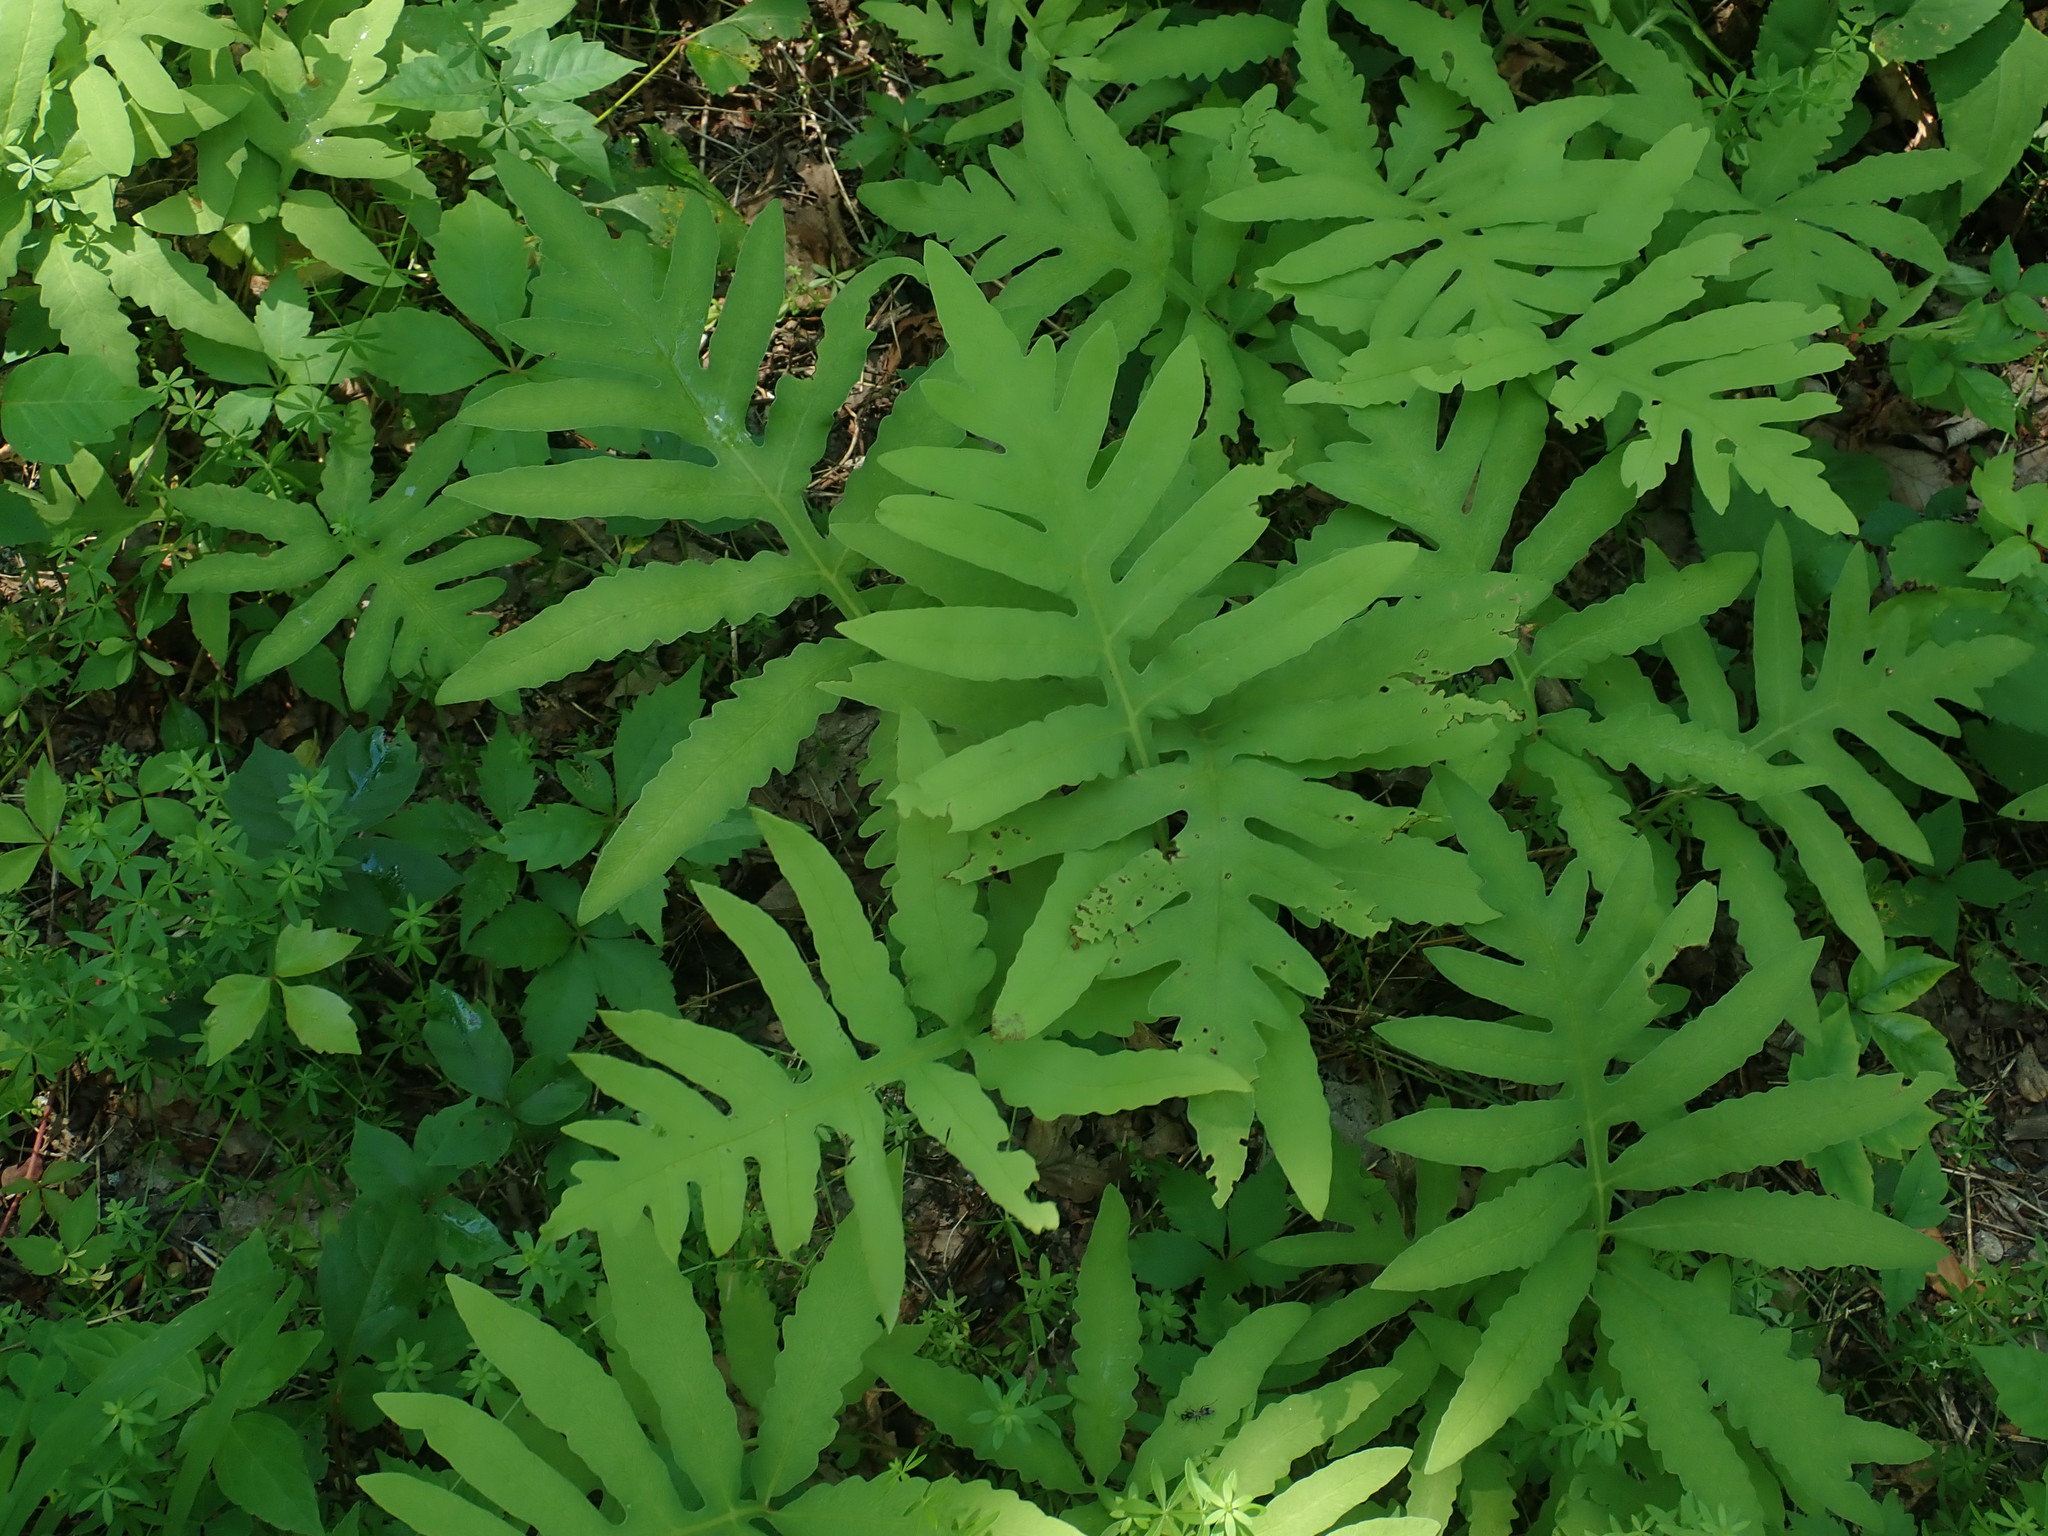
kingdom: Plantae
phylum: Tracheophyta
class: Polypodiopsida
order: Polypodiales
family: Onocleaceae
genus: Onoclea
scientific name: Onoclea sensibilis
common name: Sensitive fern
